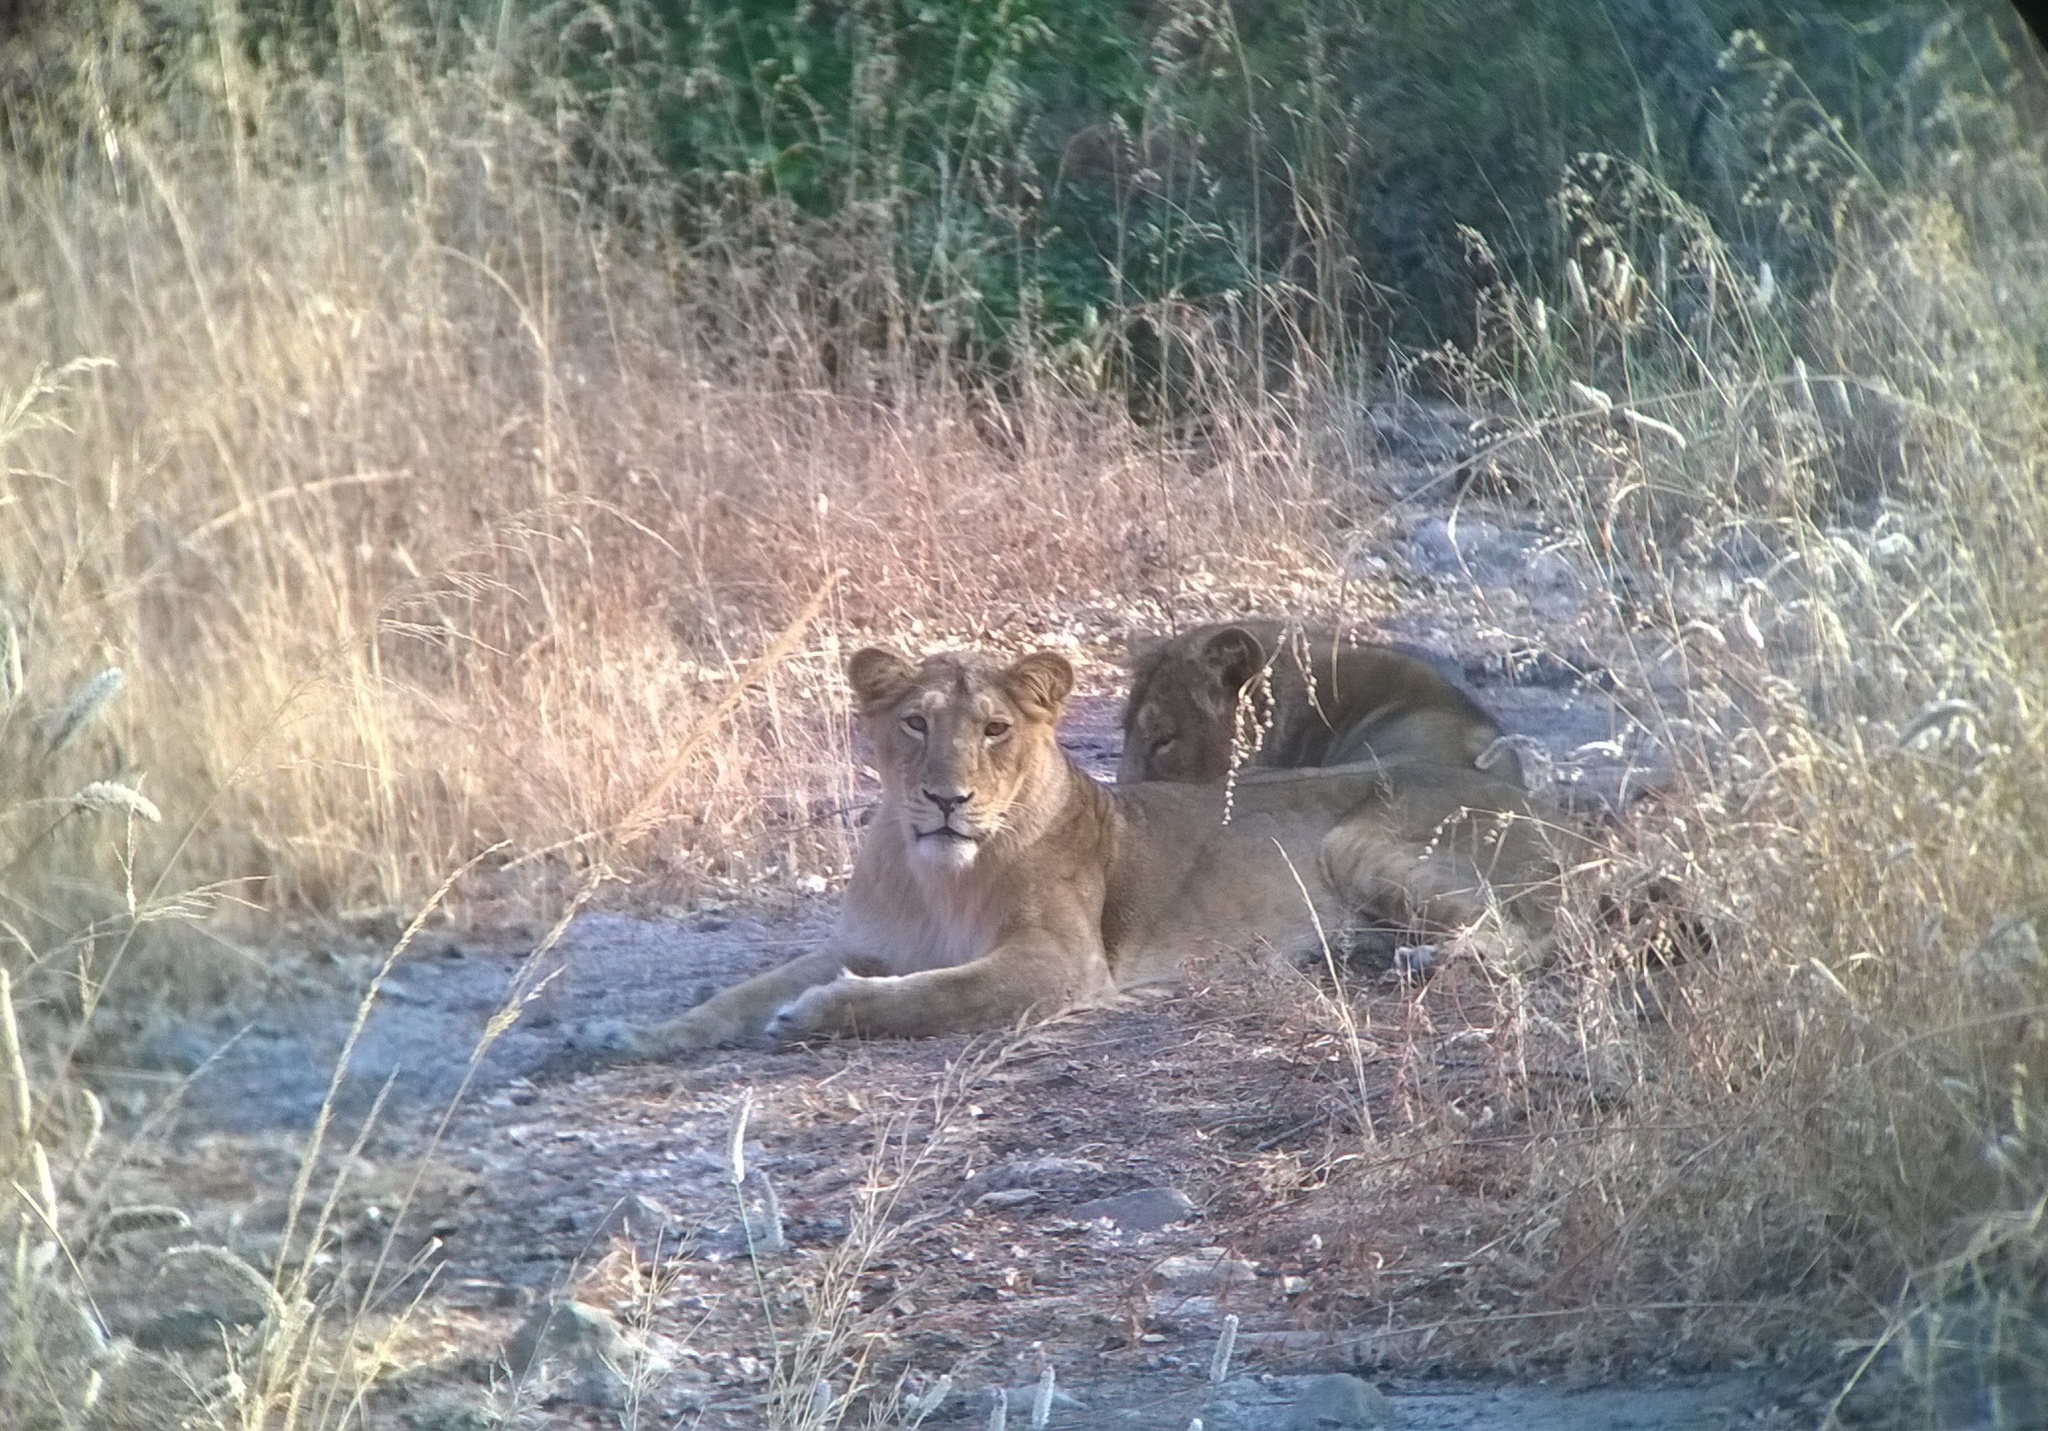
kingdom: Animalia
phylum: Chordata
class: Mammalia
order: Carnivora
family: Felidae
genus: Panthera
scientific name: Panthera leo
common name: Lion
